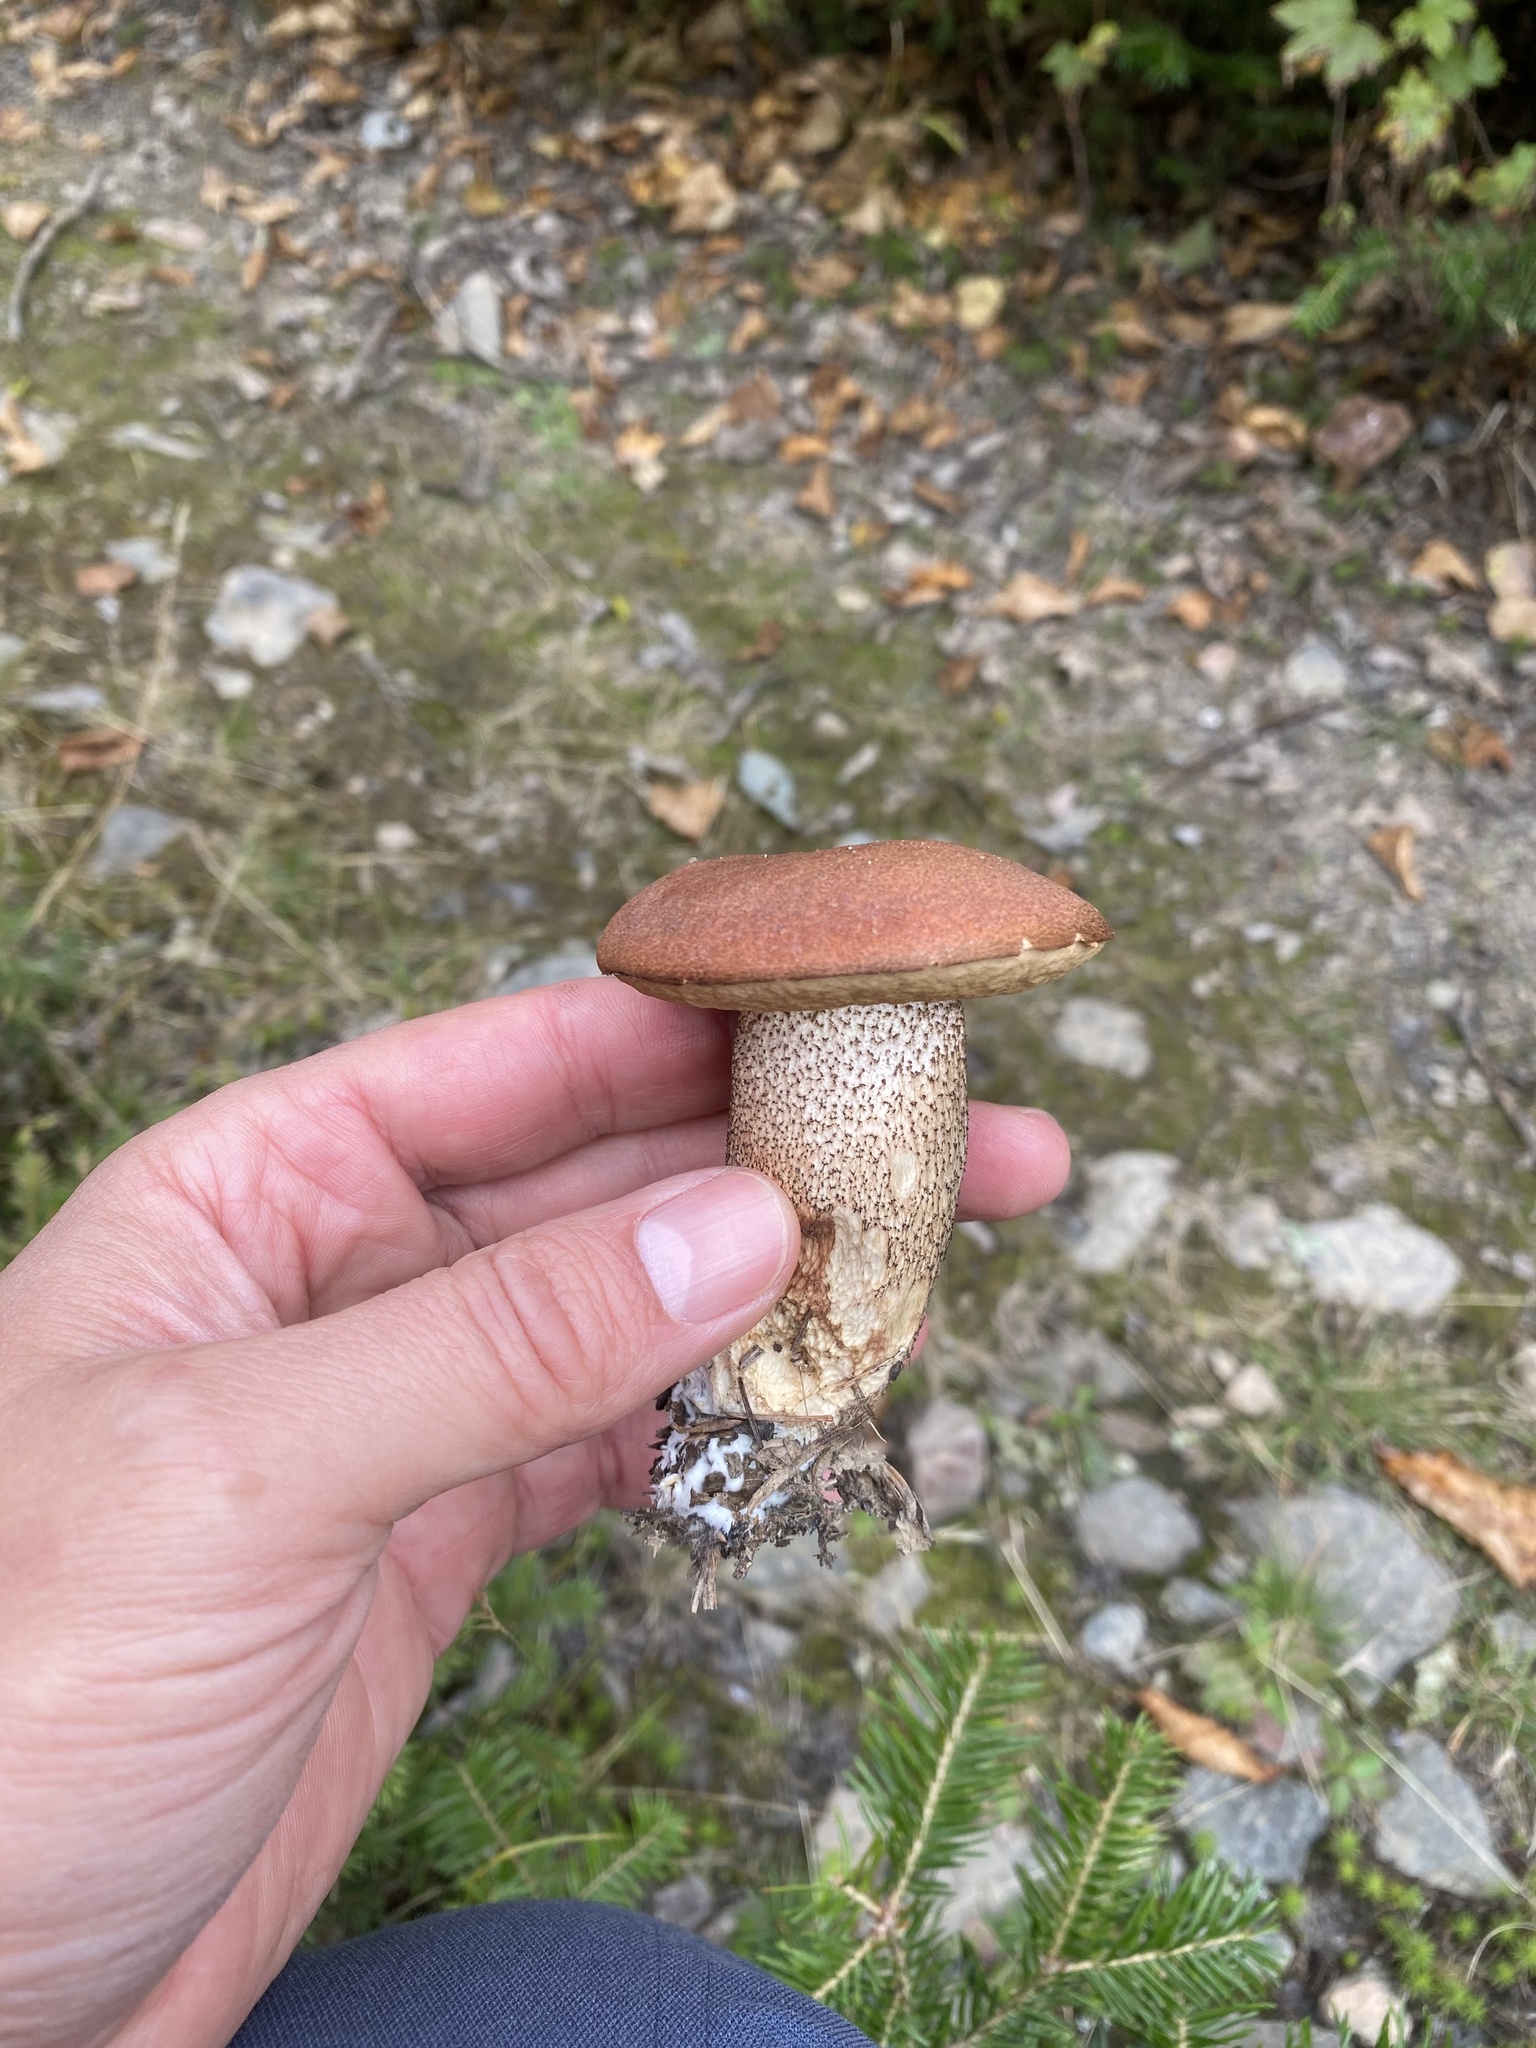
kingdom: Fungi
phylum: Basidiomycota
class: Agaricomycetes
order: Boletales
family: Boletaceae
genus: Leccinum
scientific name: Leccinum aurantiacum
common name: Orange bolete
